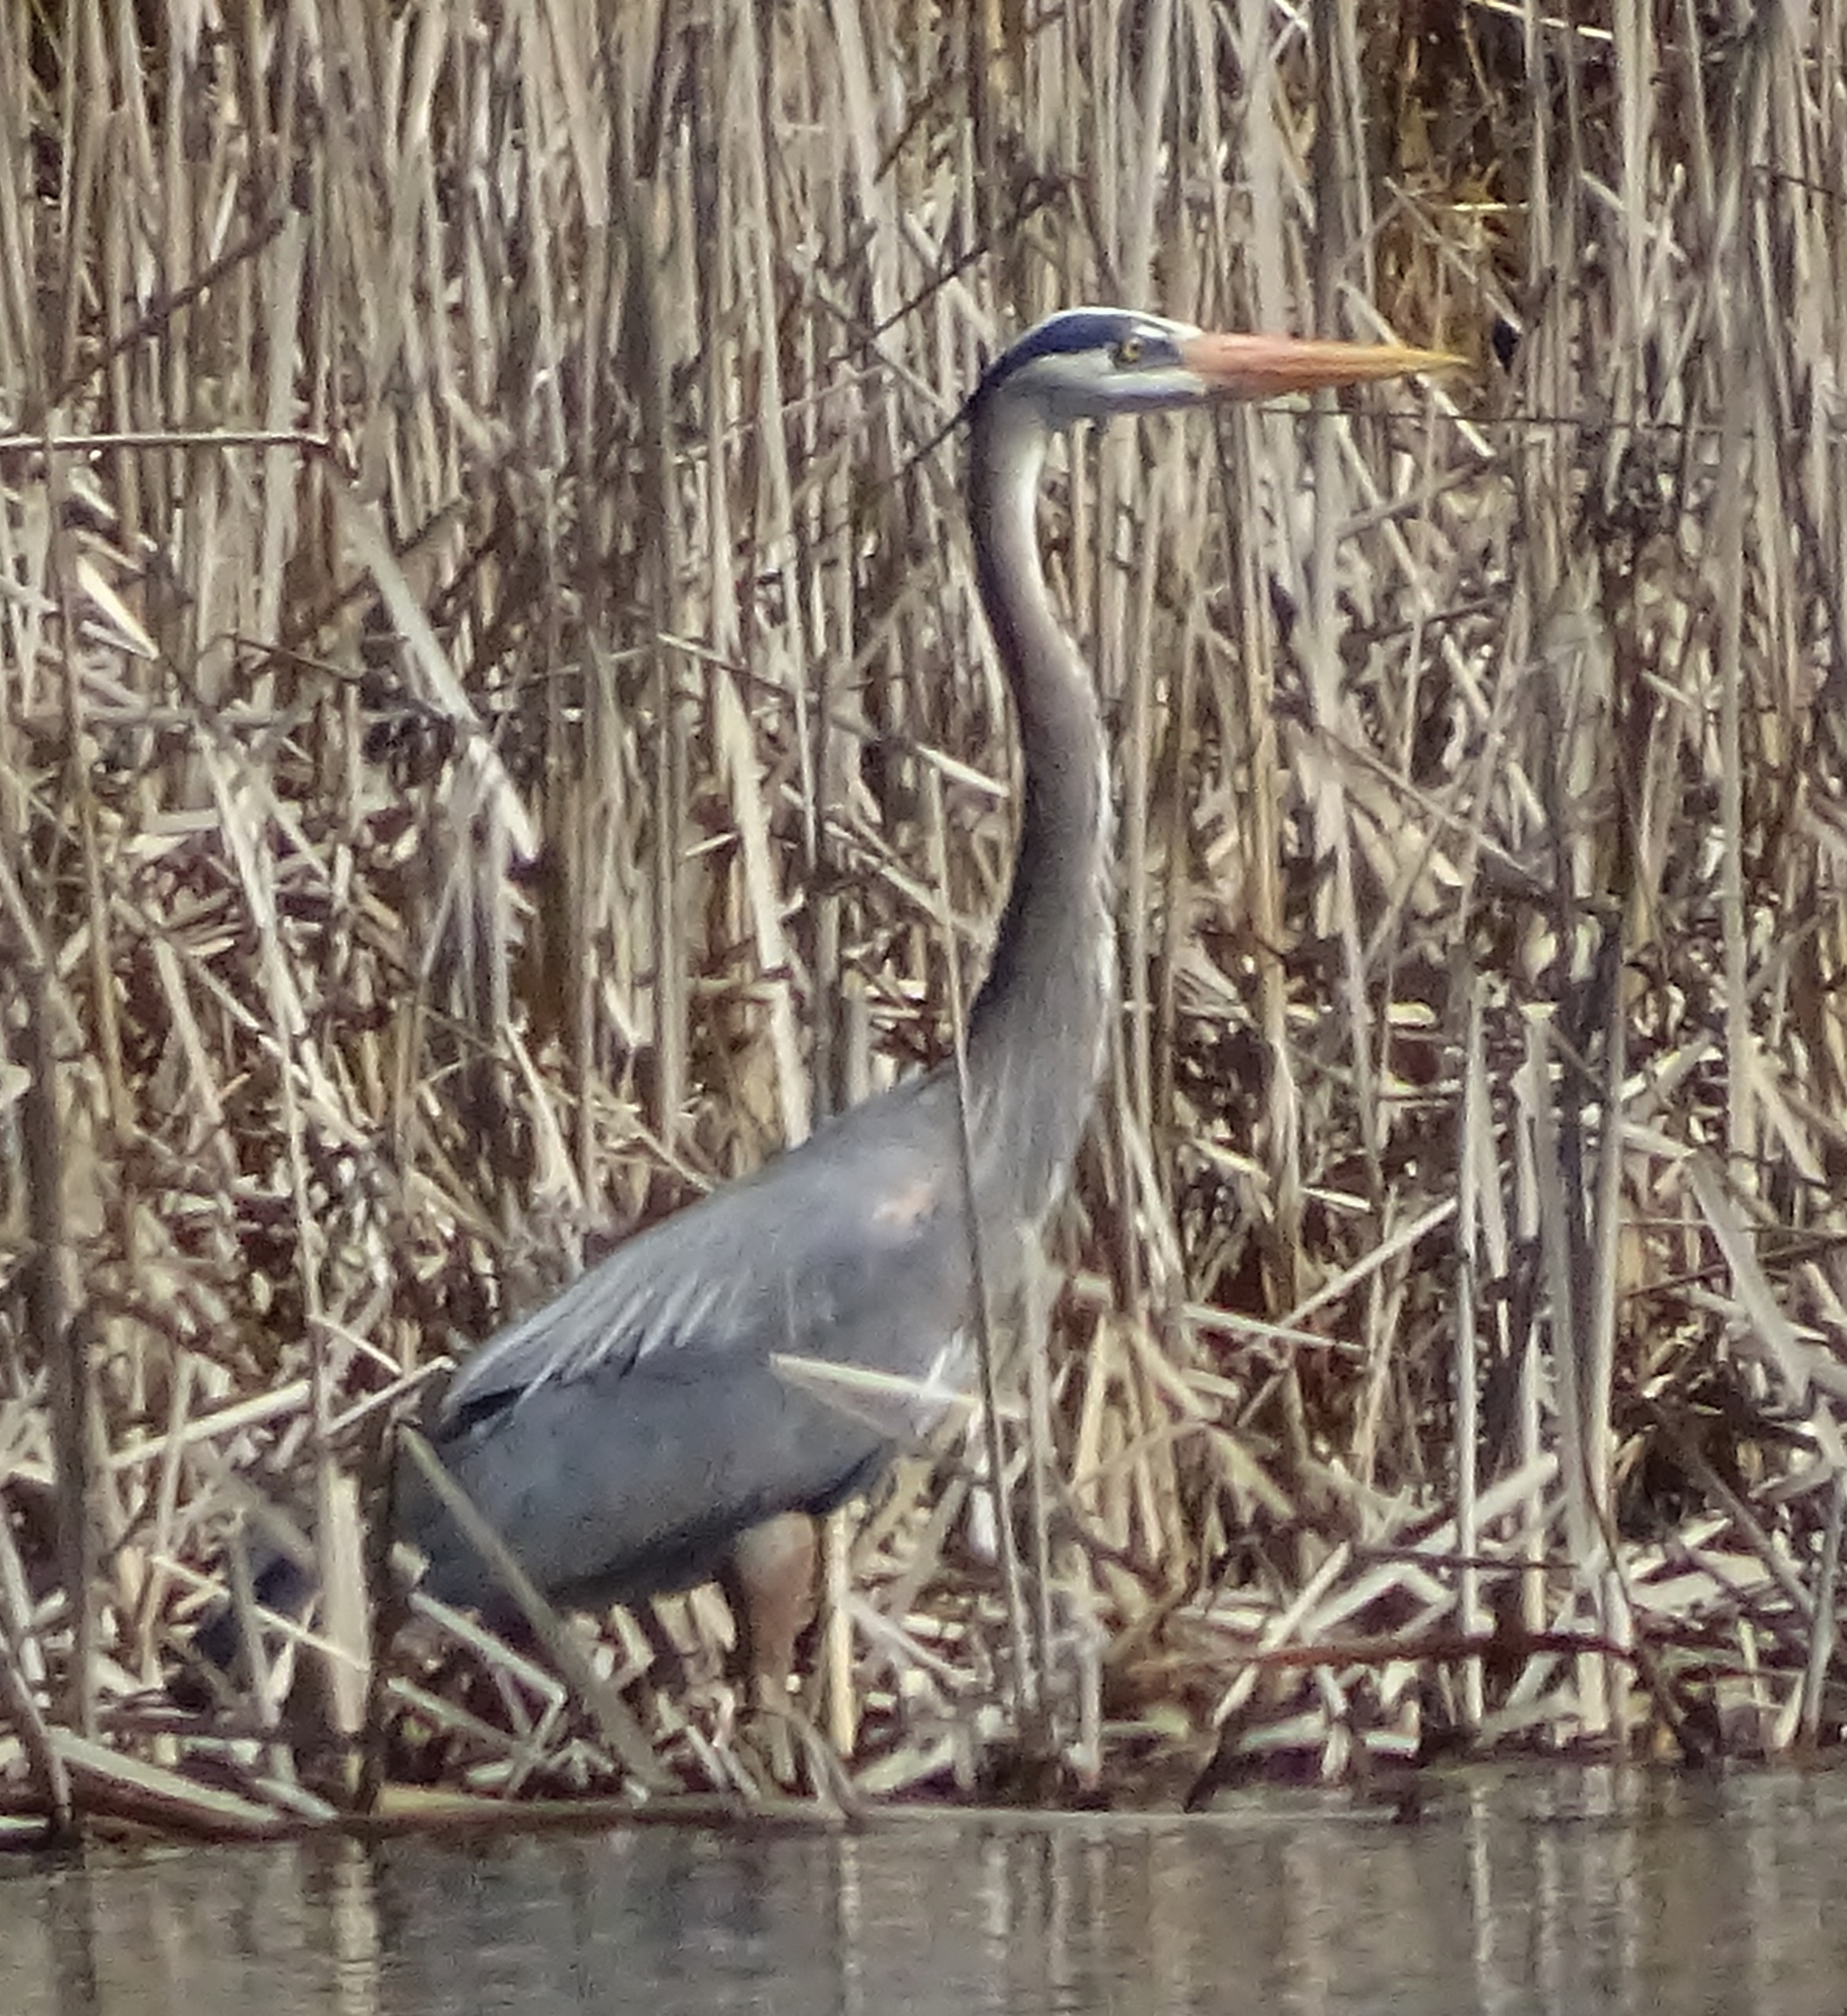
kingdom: Animalia
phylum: Chordata
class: Aves
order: Pelecaniformes
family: Ardeidae
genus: Ardea
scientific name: Ardea herodias
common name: Great blue heron
